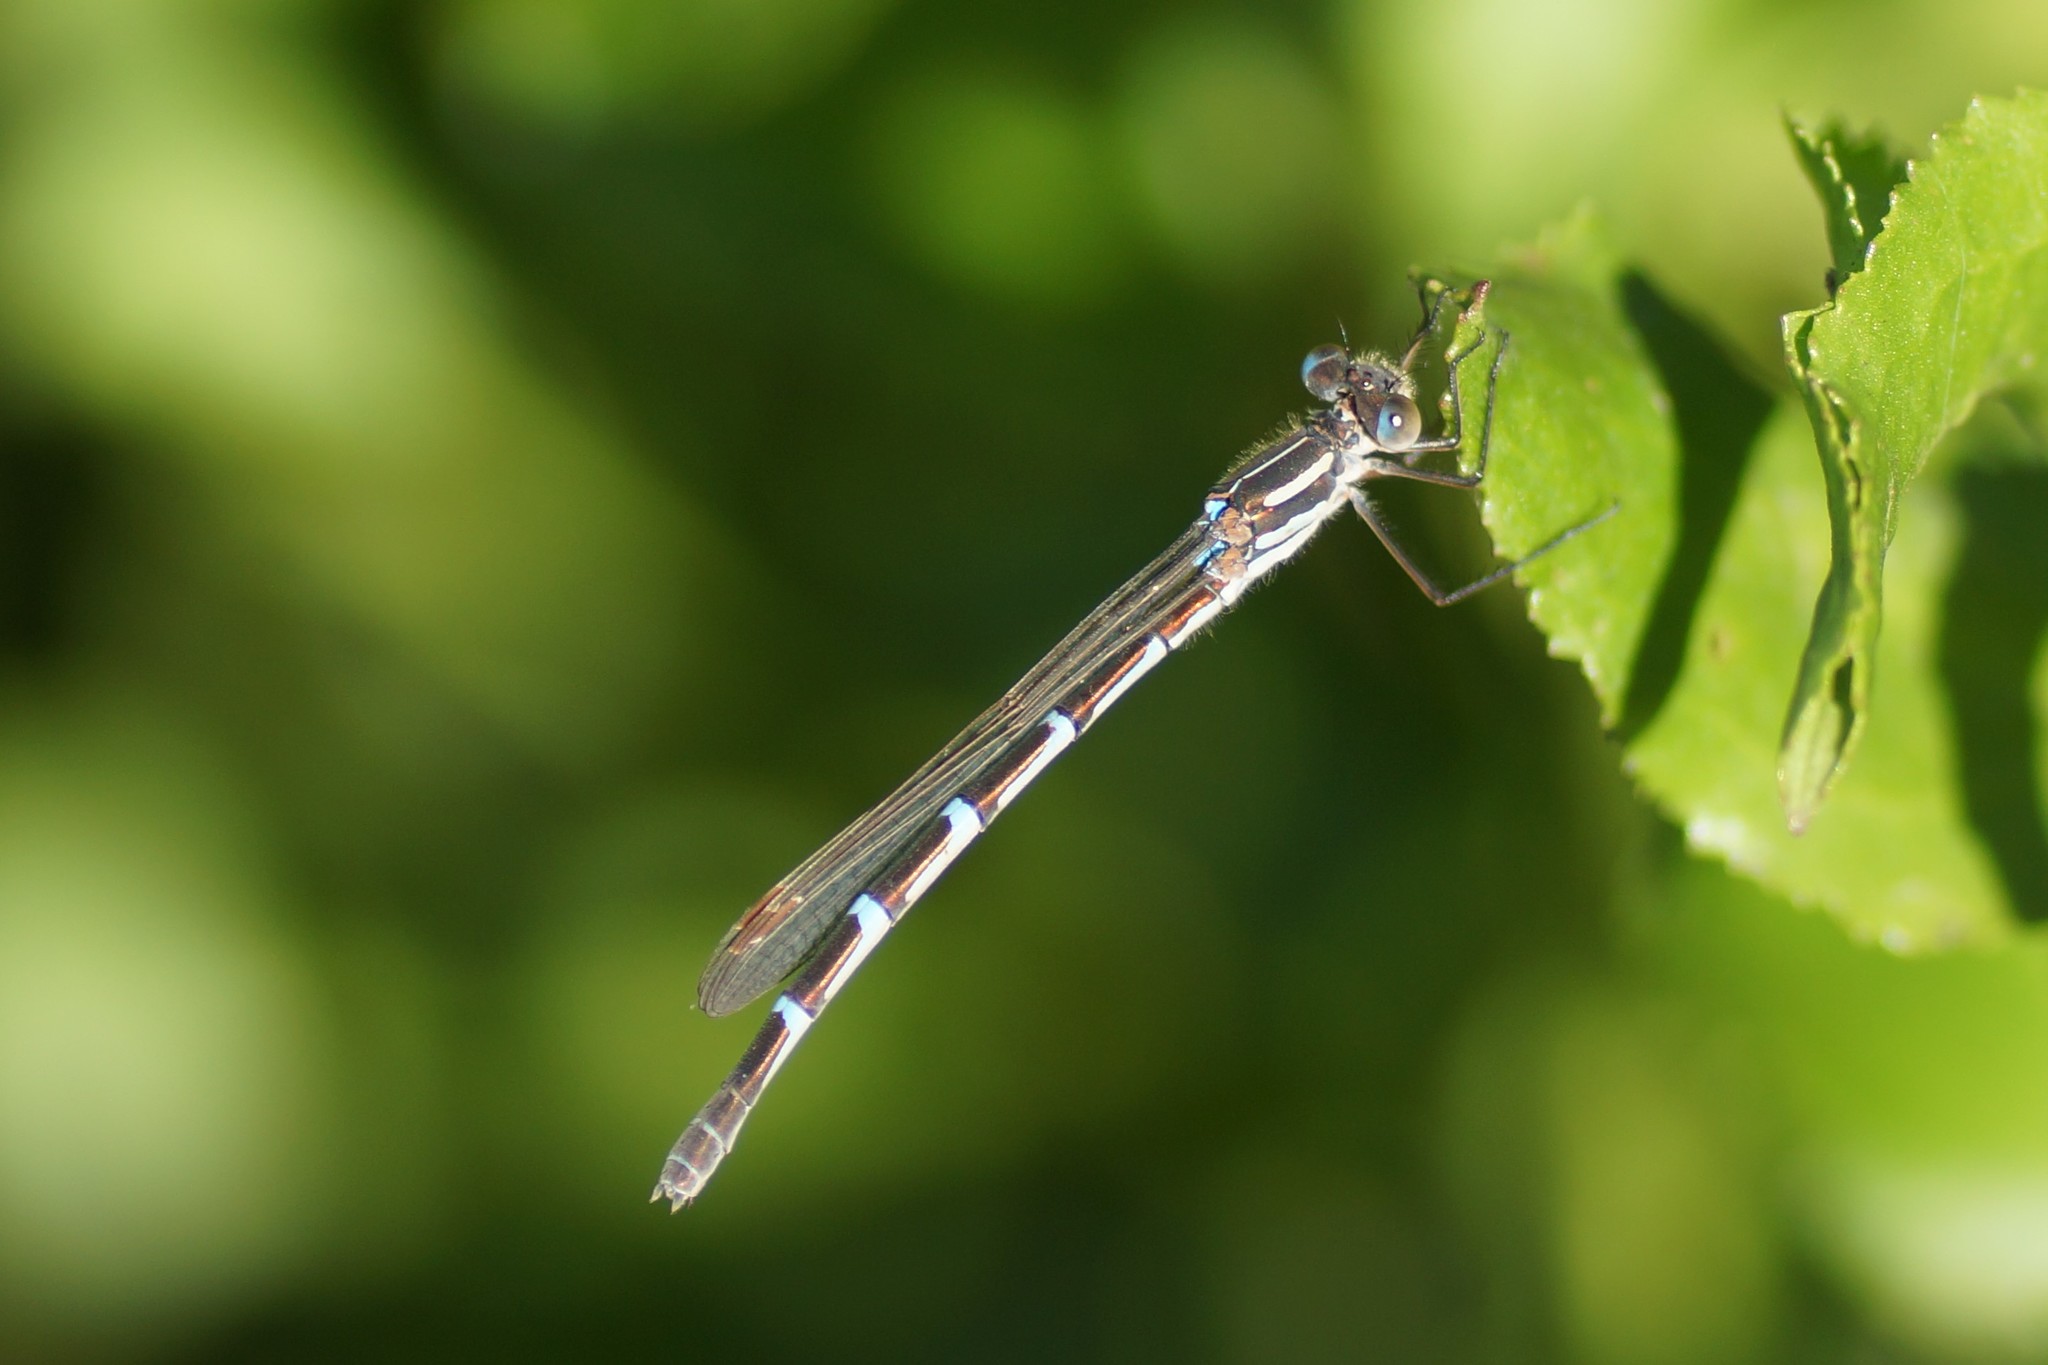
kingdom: Animalia
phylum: Arthropoda
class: Insecta
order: Odonata
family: Lestidae
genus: Austrolestes
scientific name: Austrolestes annulosus
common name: Blue ringtail
